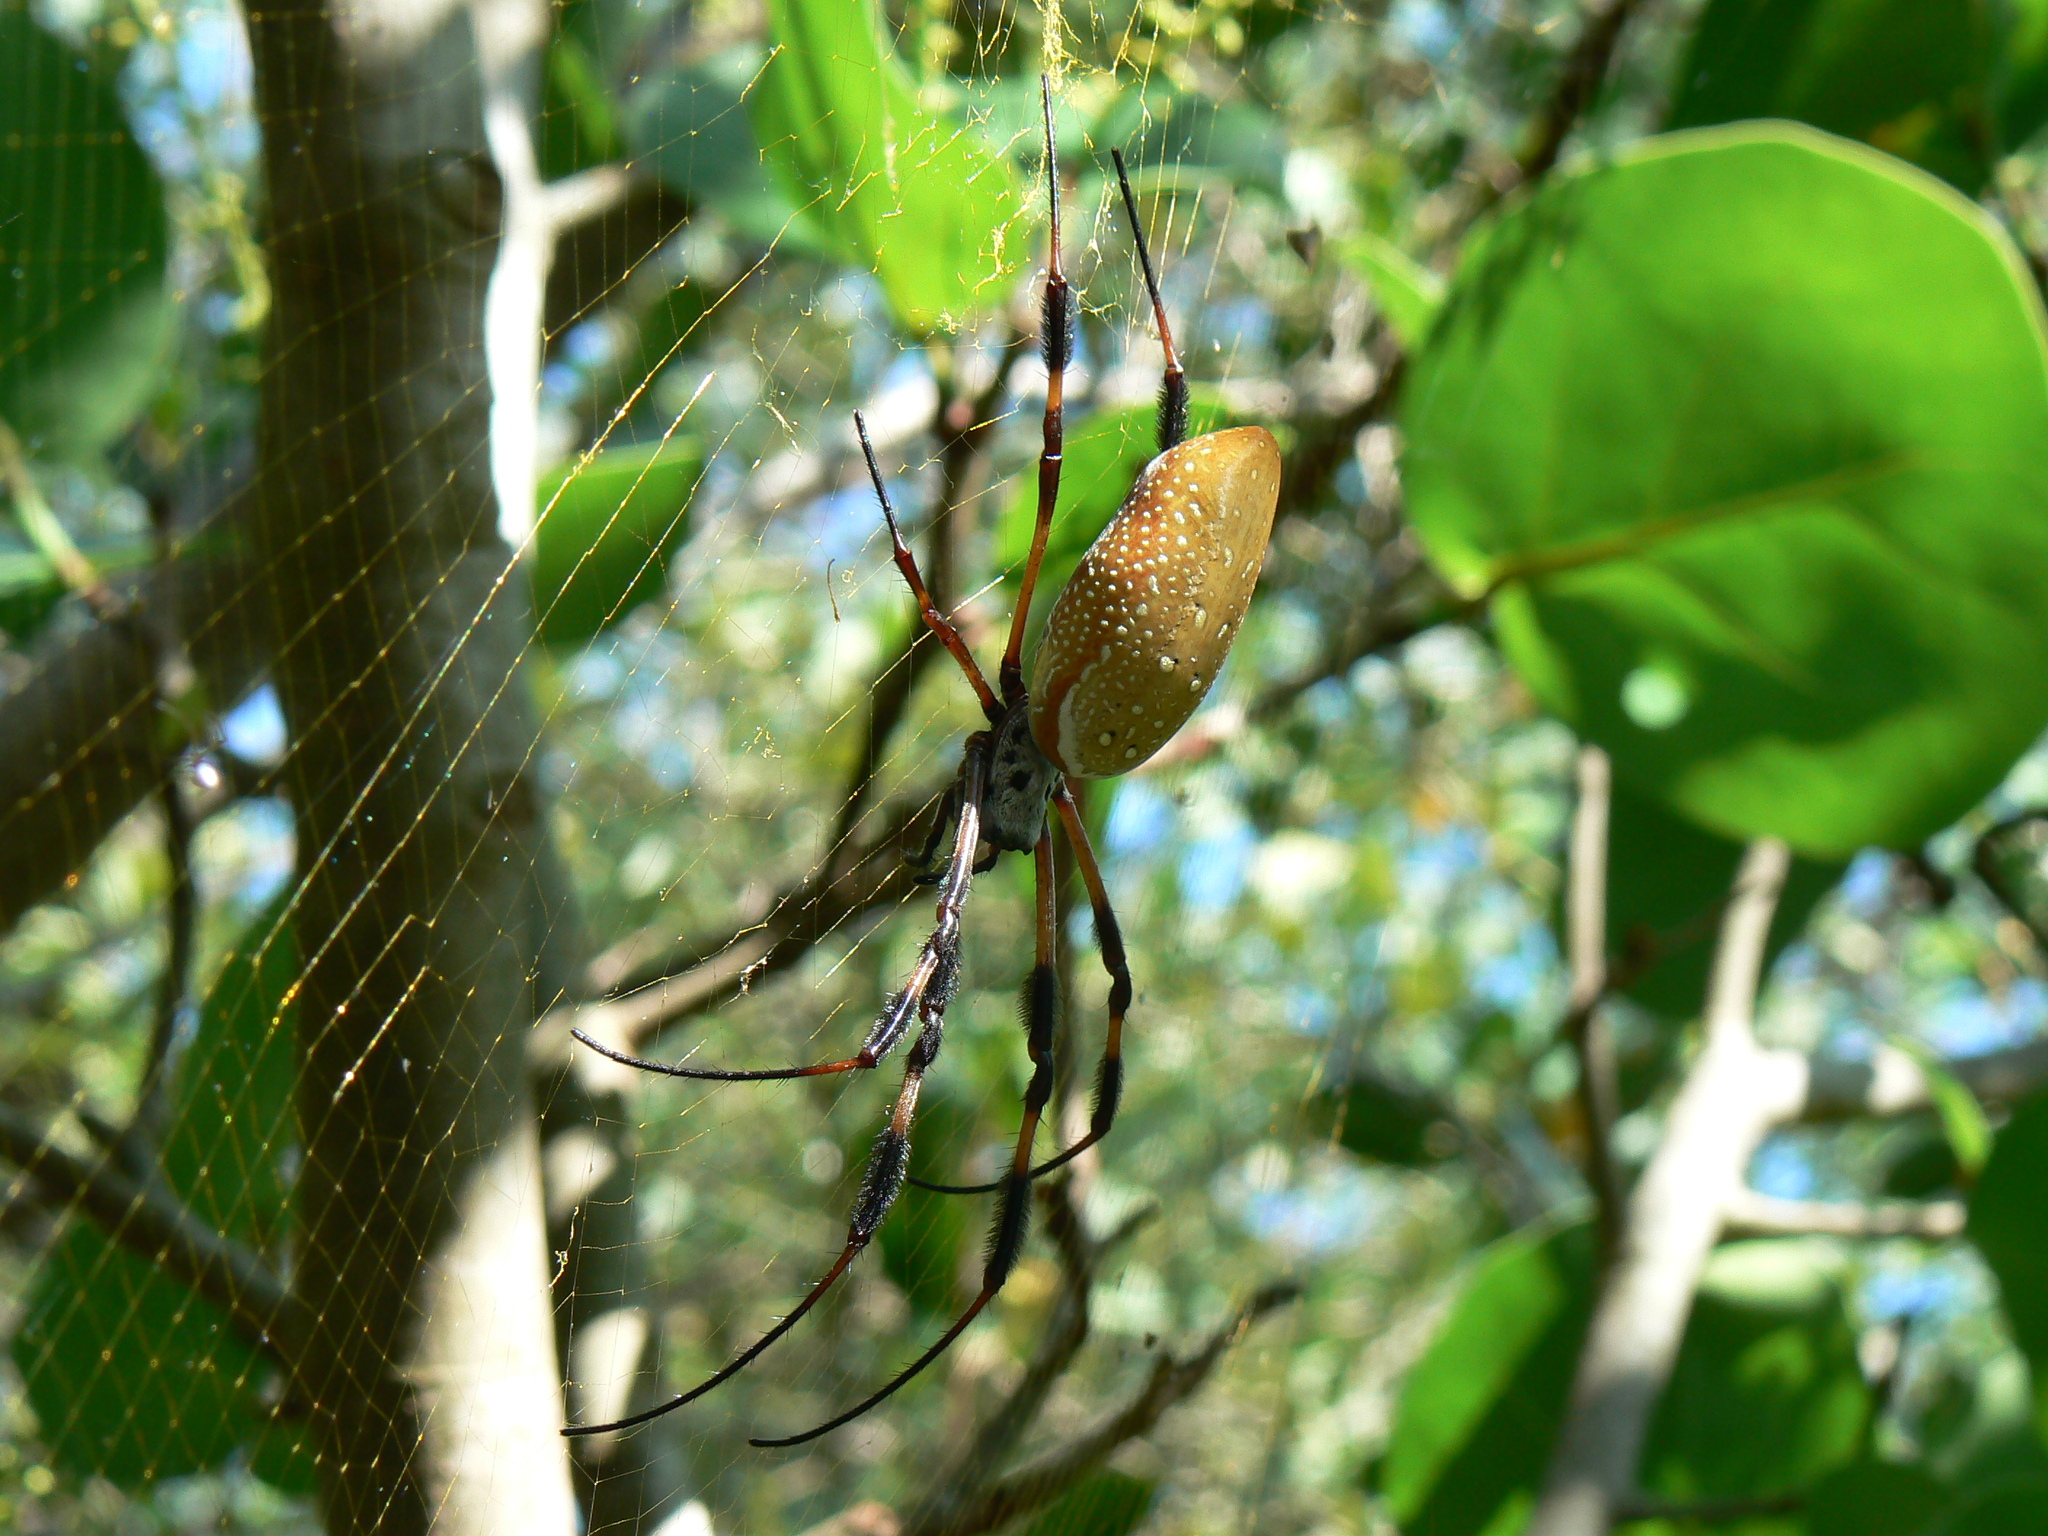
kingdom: Animalia
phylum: Arthropoda
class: Arachnida
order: Araneae
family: Araneidae
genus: Trichonephila
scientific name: Trichonephila clavipes
